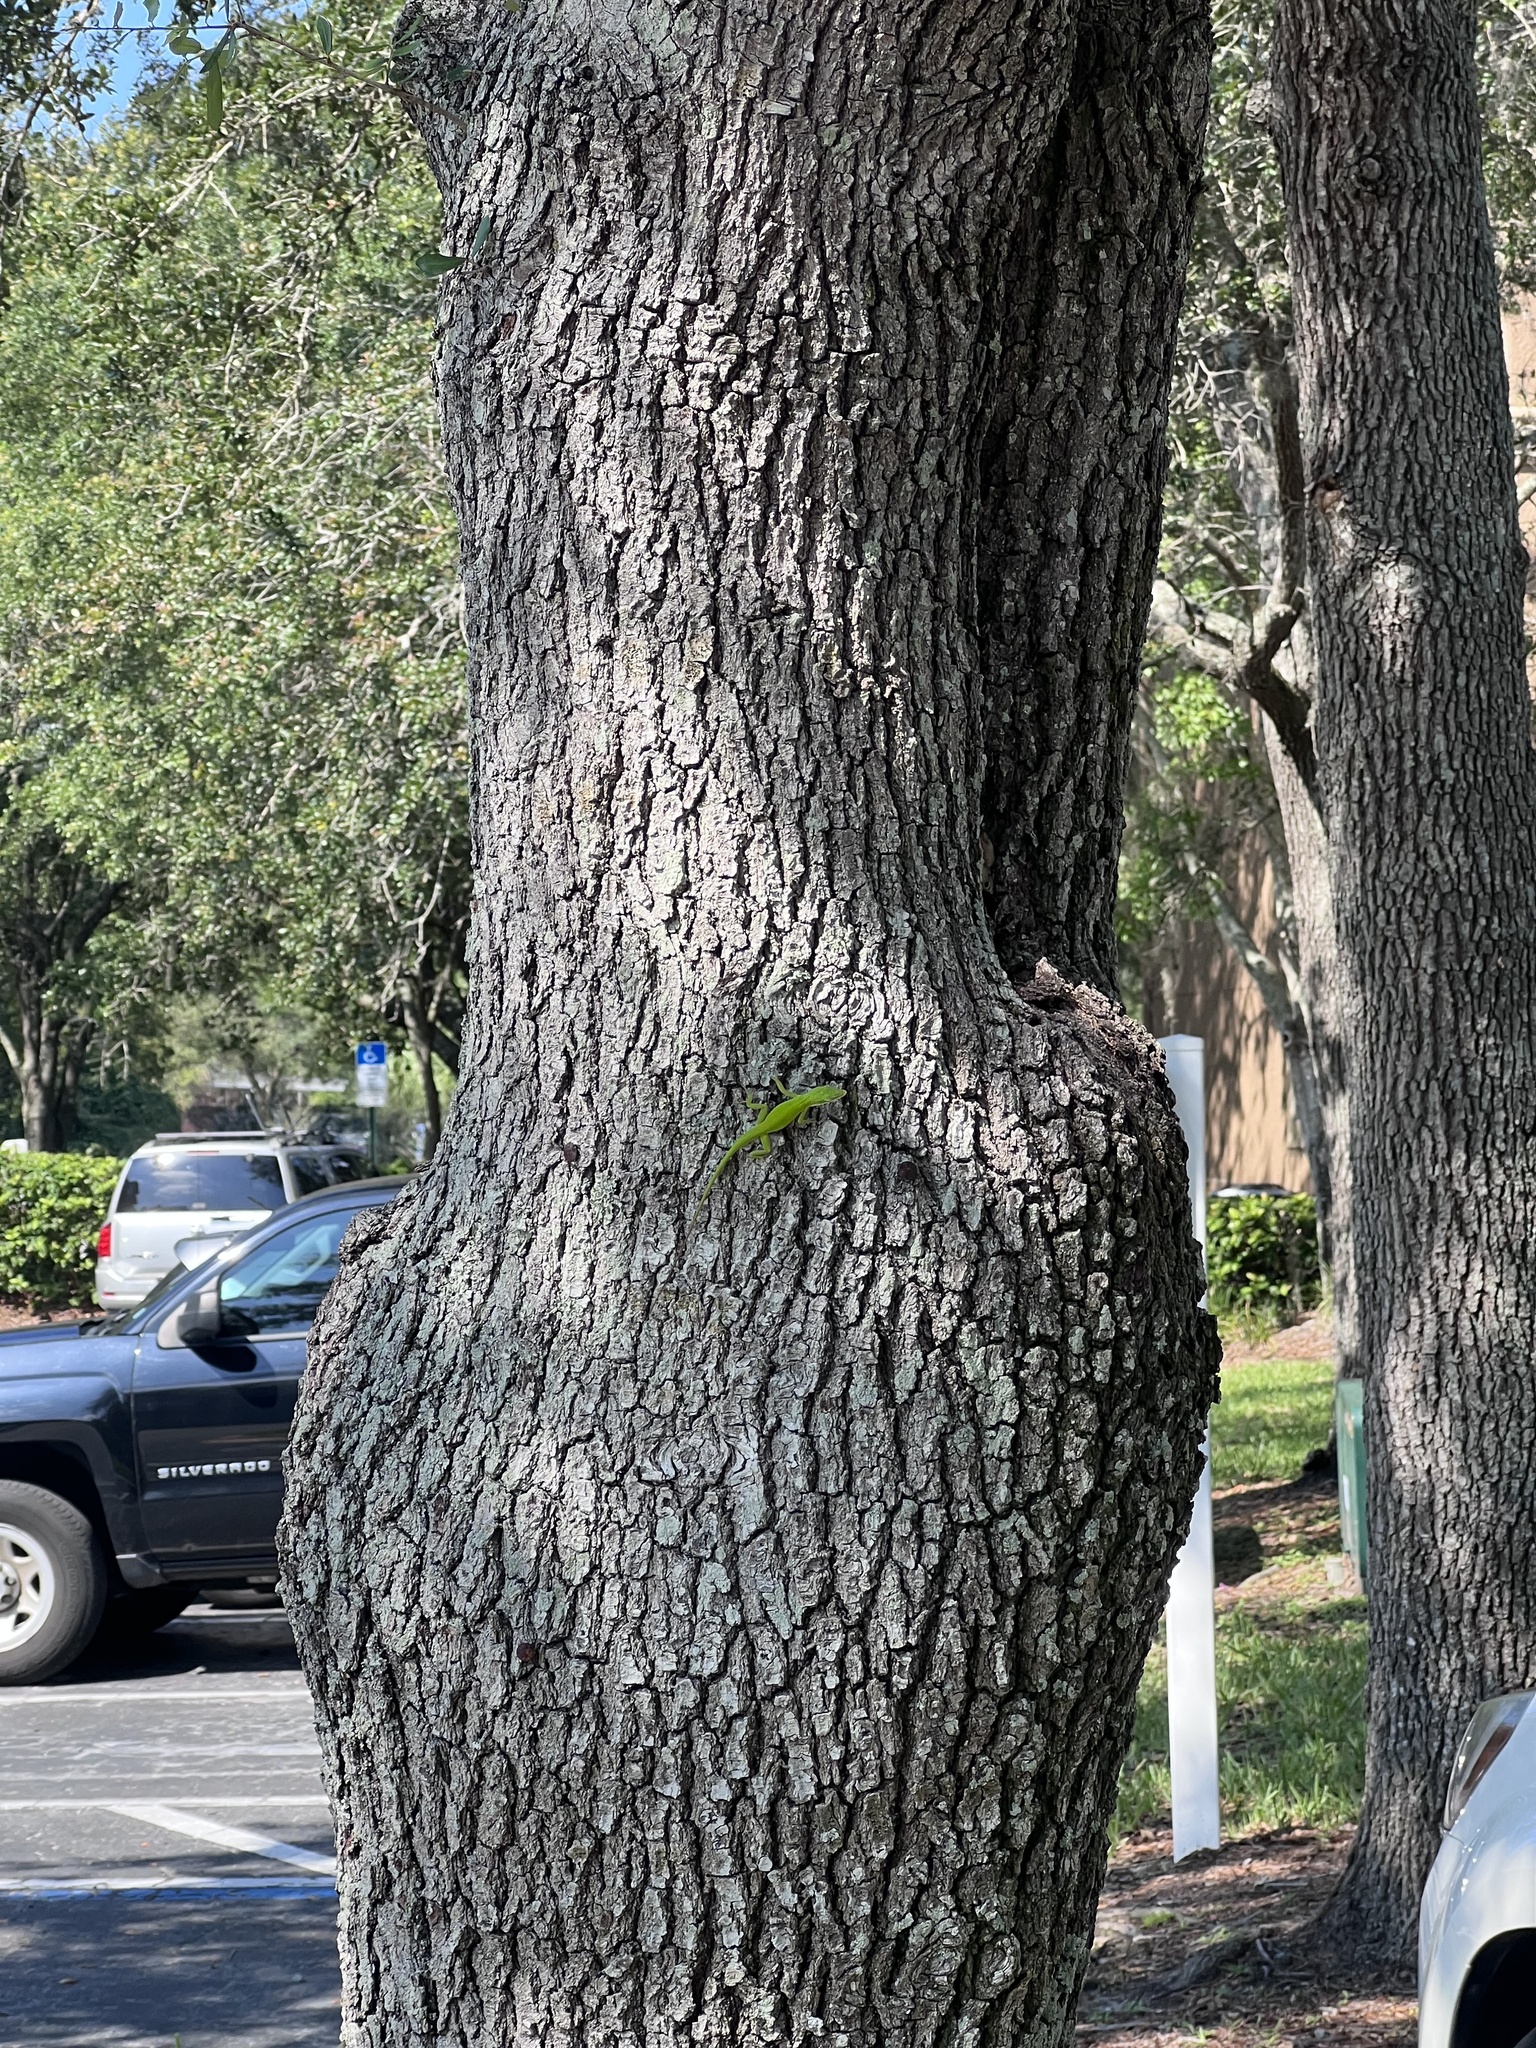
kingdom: Animalia
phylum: Chordata
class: Squamata
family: Dactyloidae
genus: Anolis
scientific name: Anolis carolinensis
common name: Green anole
